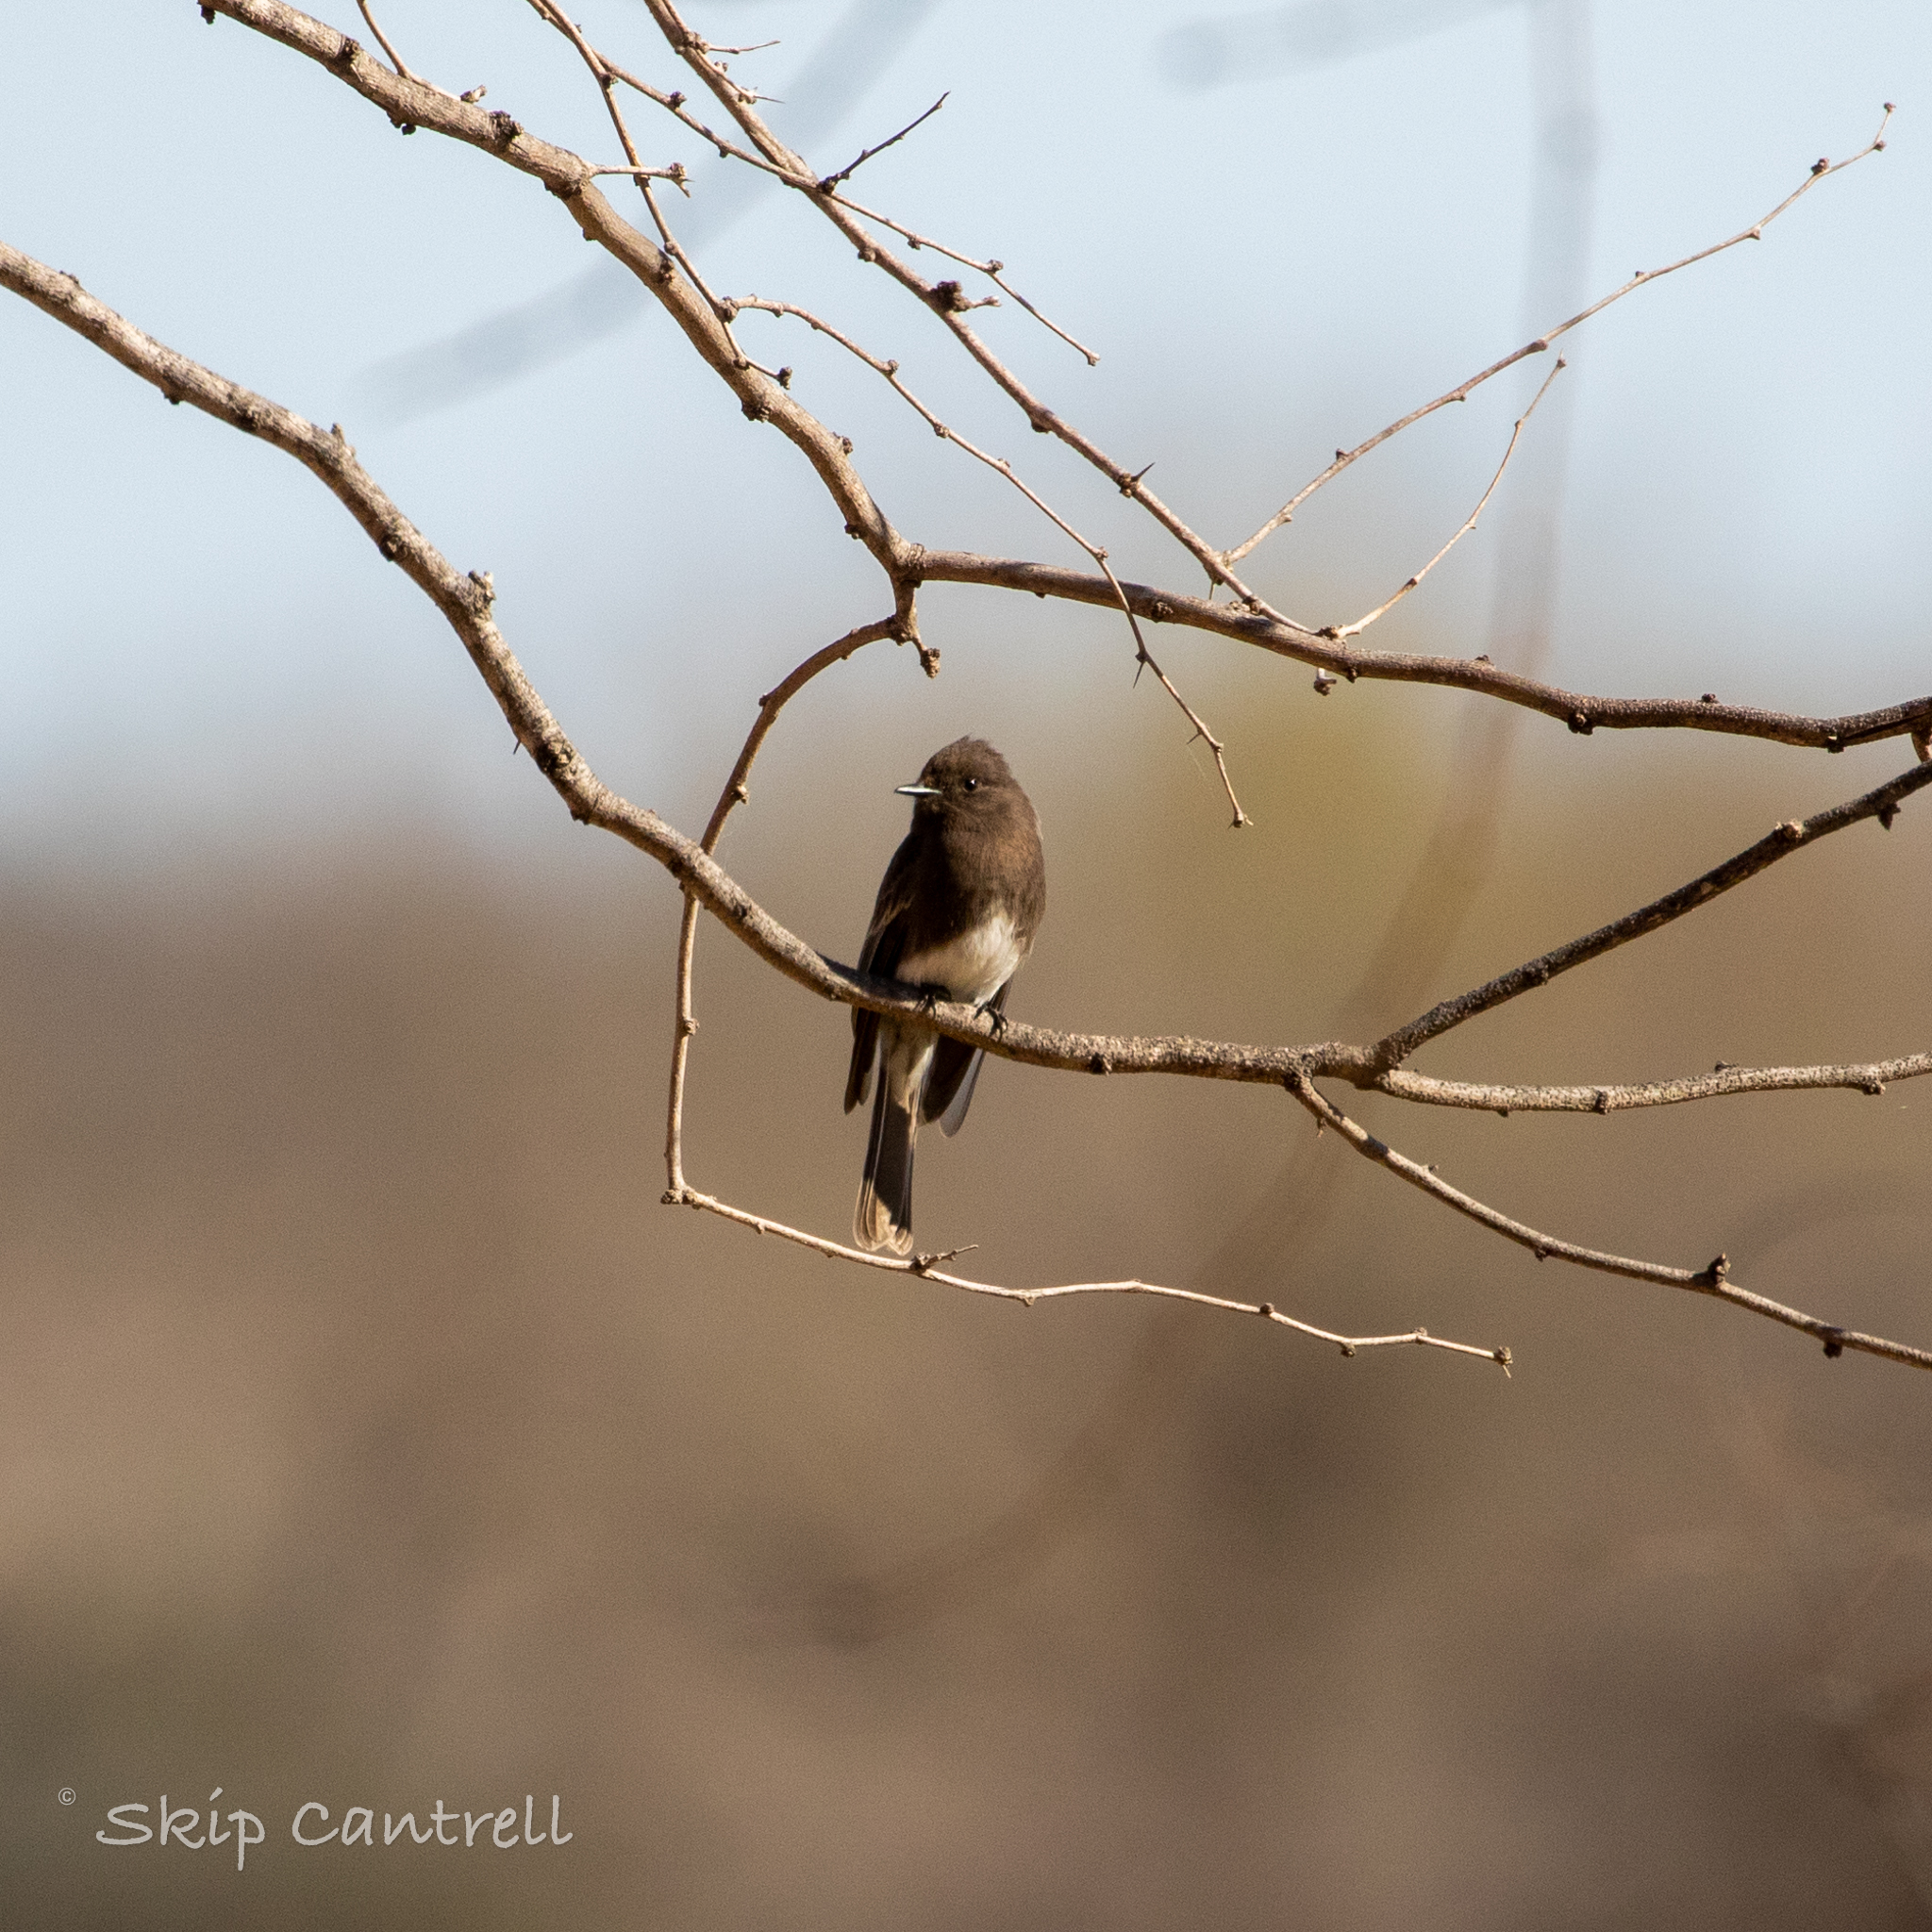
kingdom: Animalia
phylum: Chordata
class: Aves
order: Passeriformes
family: Tyrannidae
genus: Sayornis
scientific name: Sayornis nigricans
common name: Black phoebe
